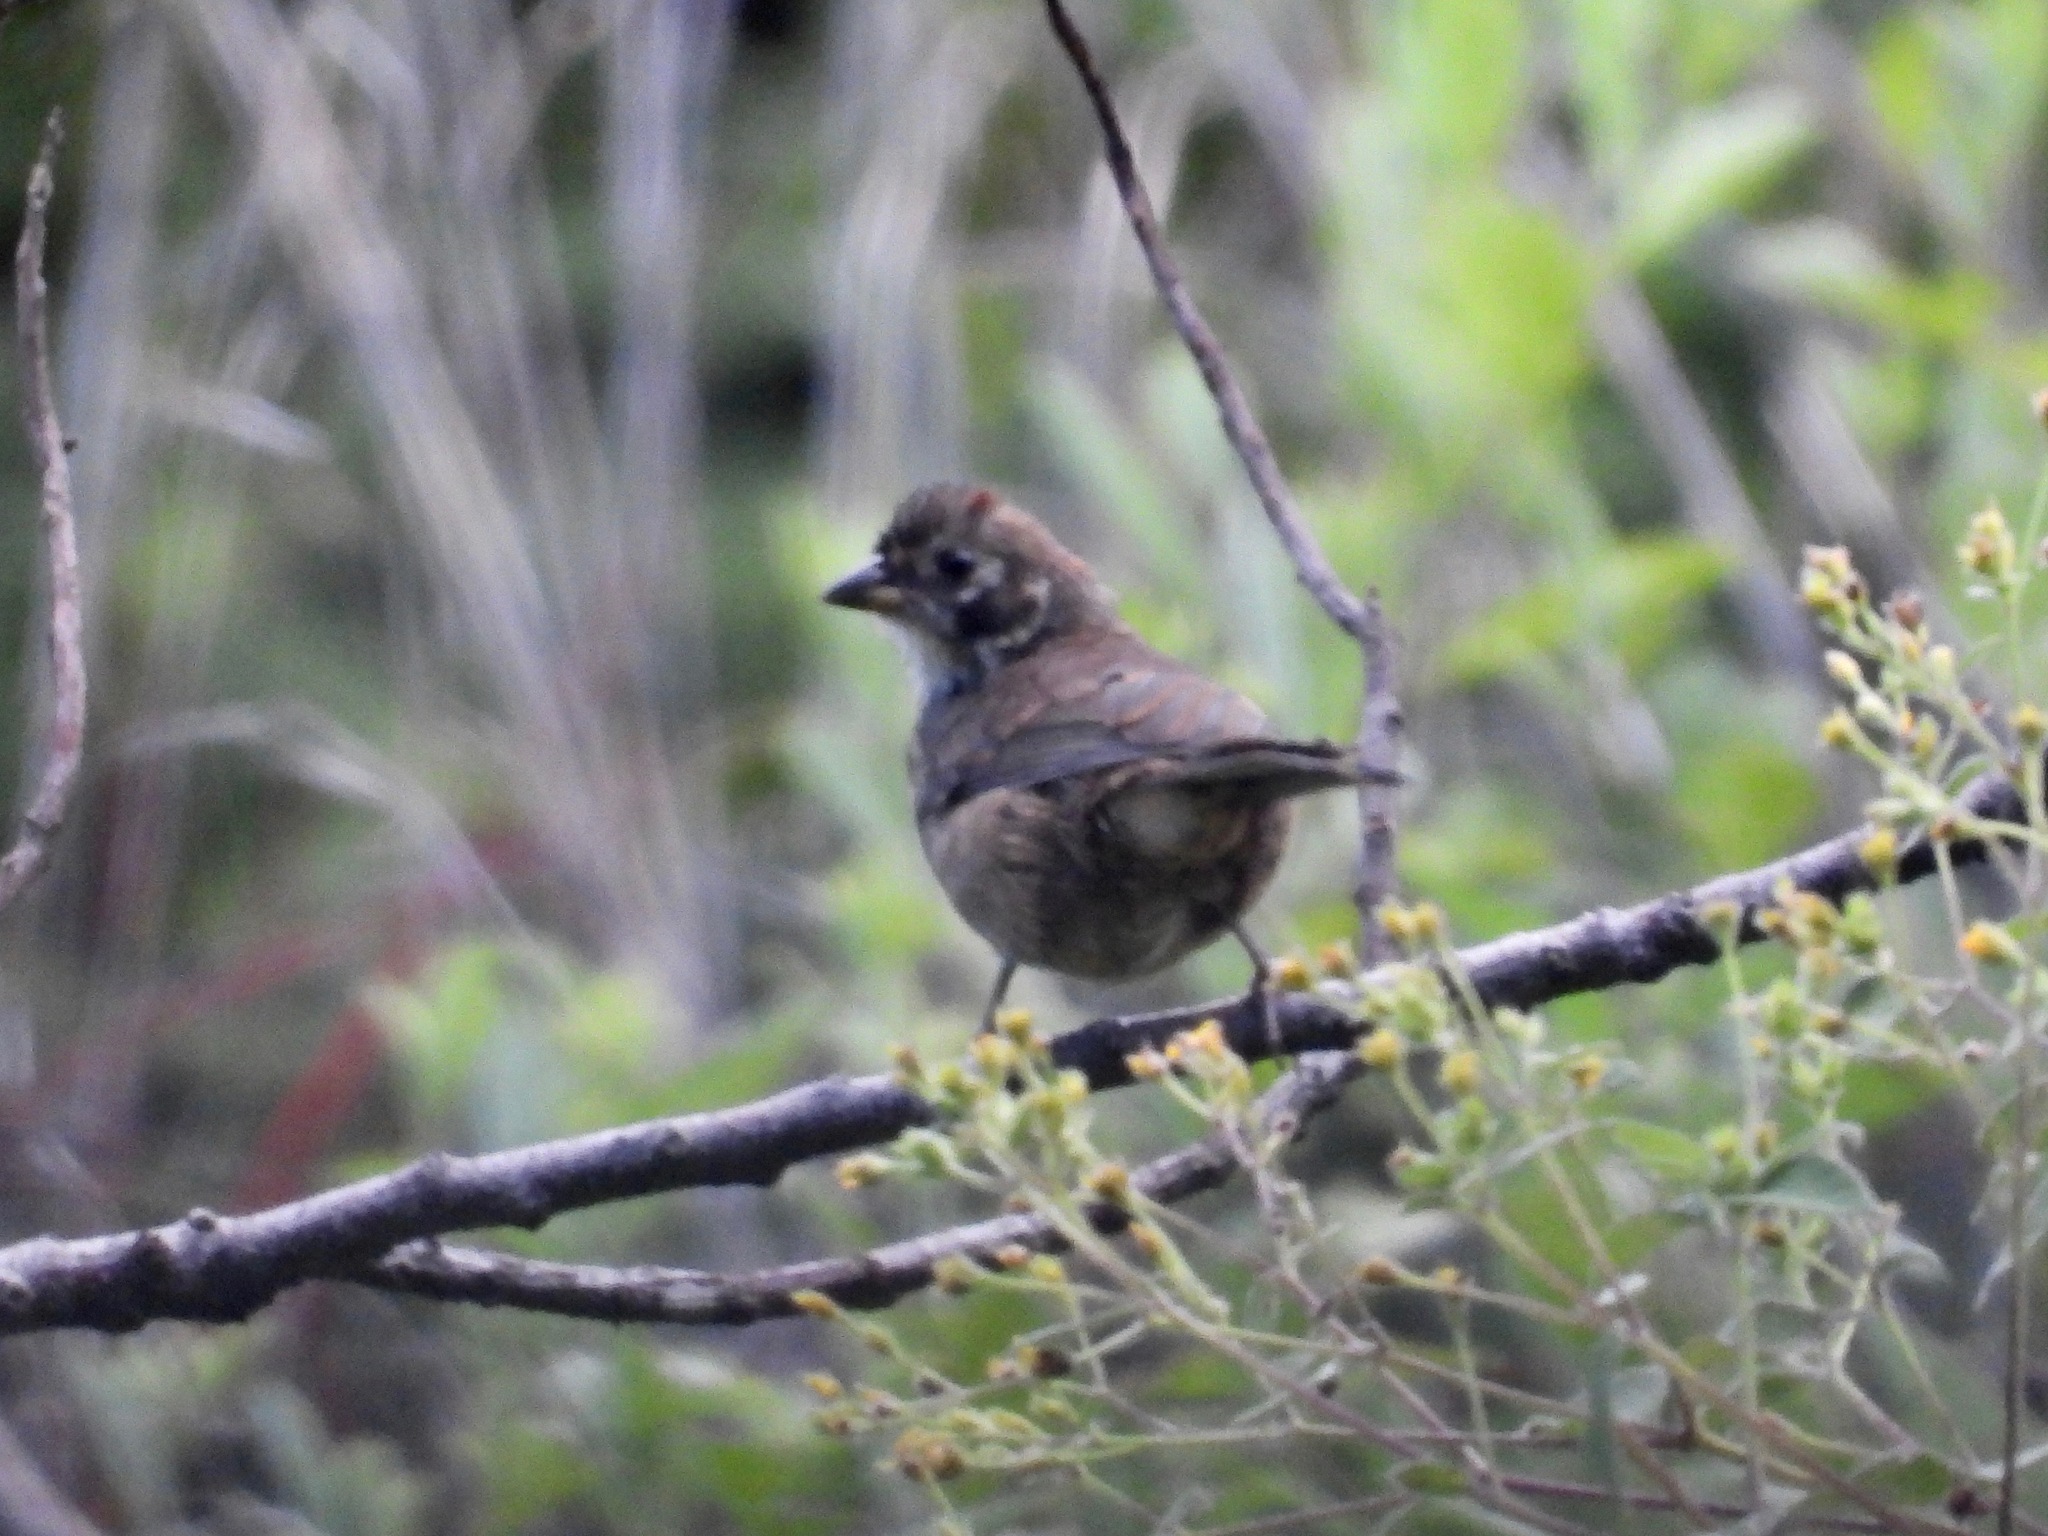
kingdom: Animalia
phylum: Chordata
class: Aves
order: Passeriformes
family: Passerellidae
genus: Melozone
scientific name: Melozone biarcuata
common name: Prevost's ground-sparrow
